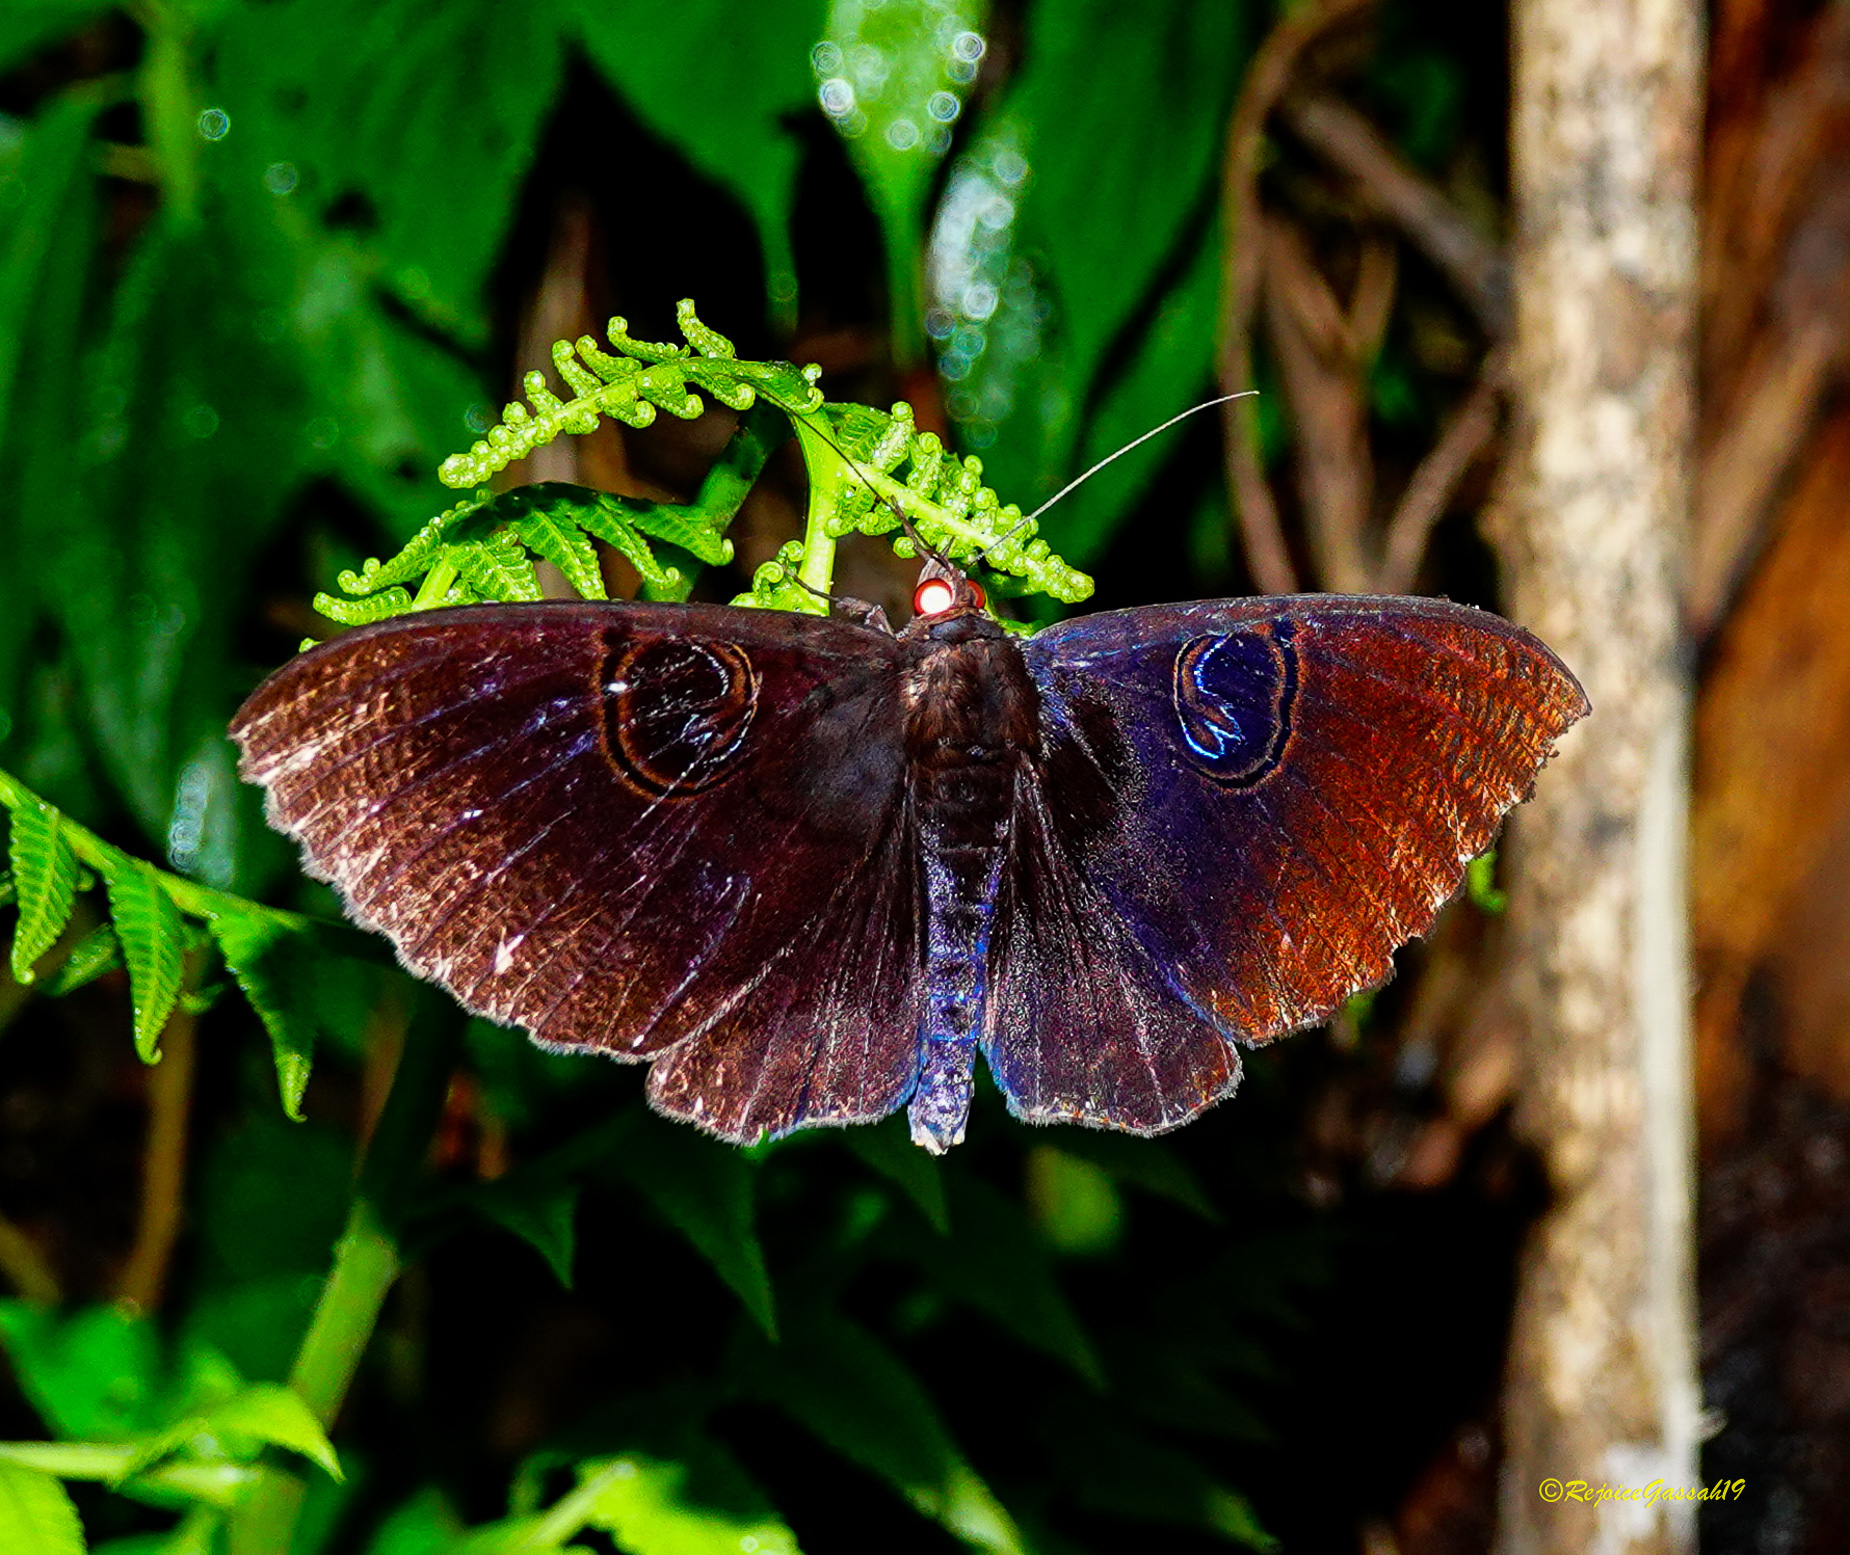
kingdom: Animalia
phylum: Arthropoda
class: Insecta
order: Lepidoptera
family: Erebidae
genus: Erebus
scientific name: Erebus caprimulgus
